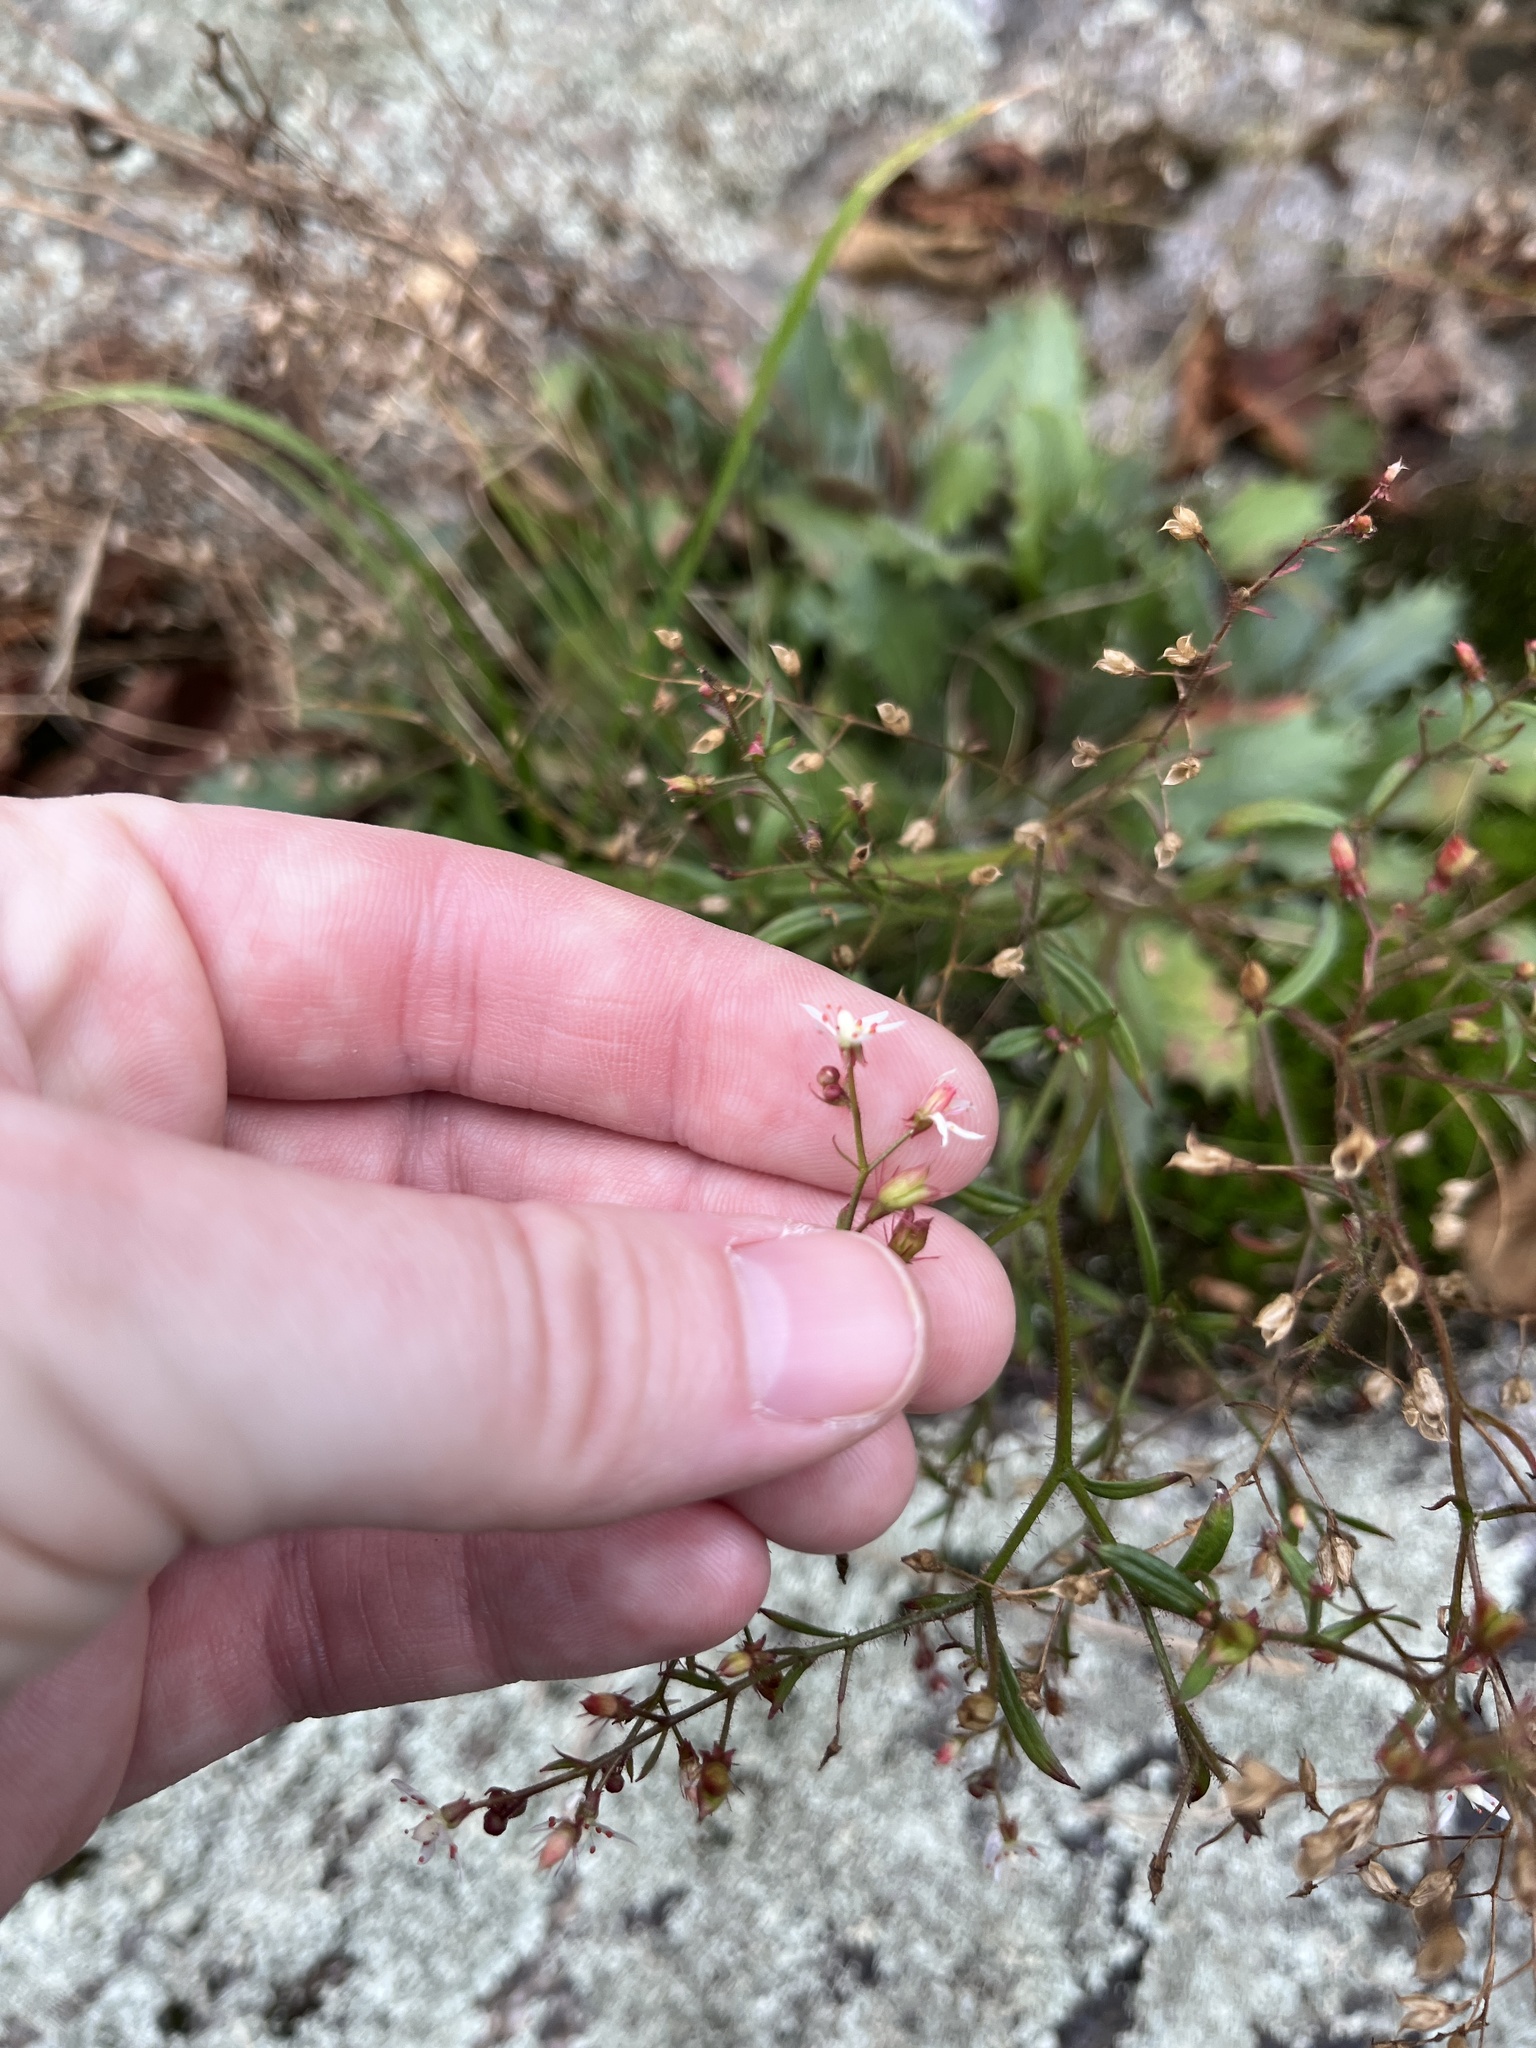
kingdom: Plantae
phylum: Tracheophyta
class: Magnoliopsida
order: Saxifragales
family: Saxifragaceae
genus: Micranthes
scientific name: Micranthes petiolaris
